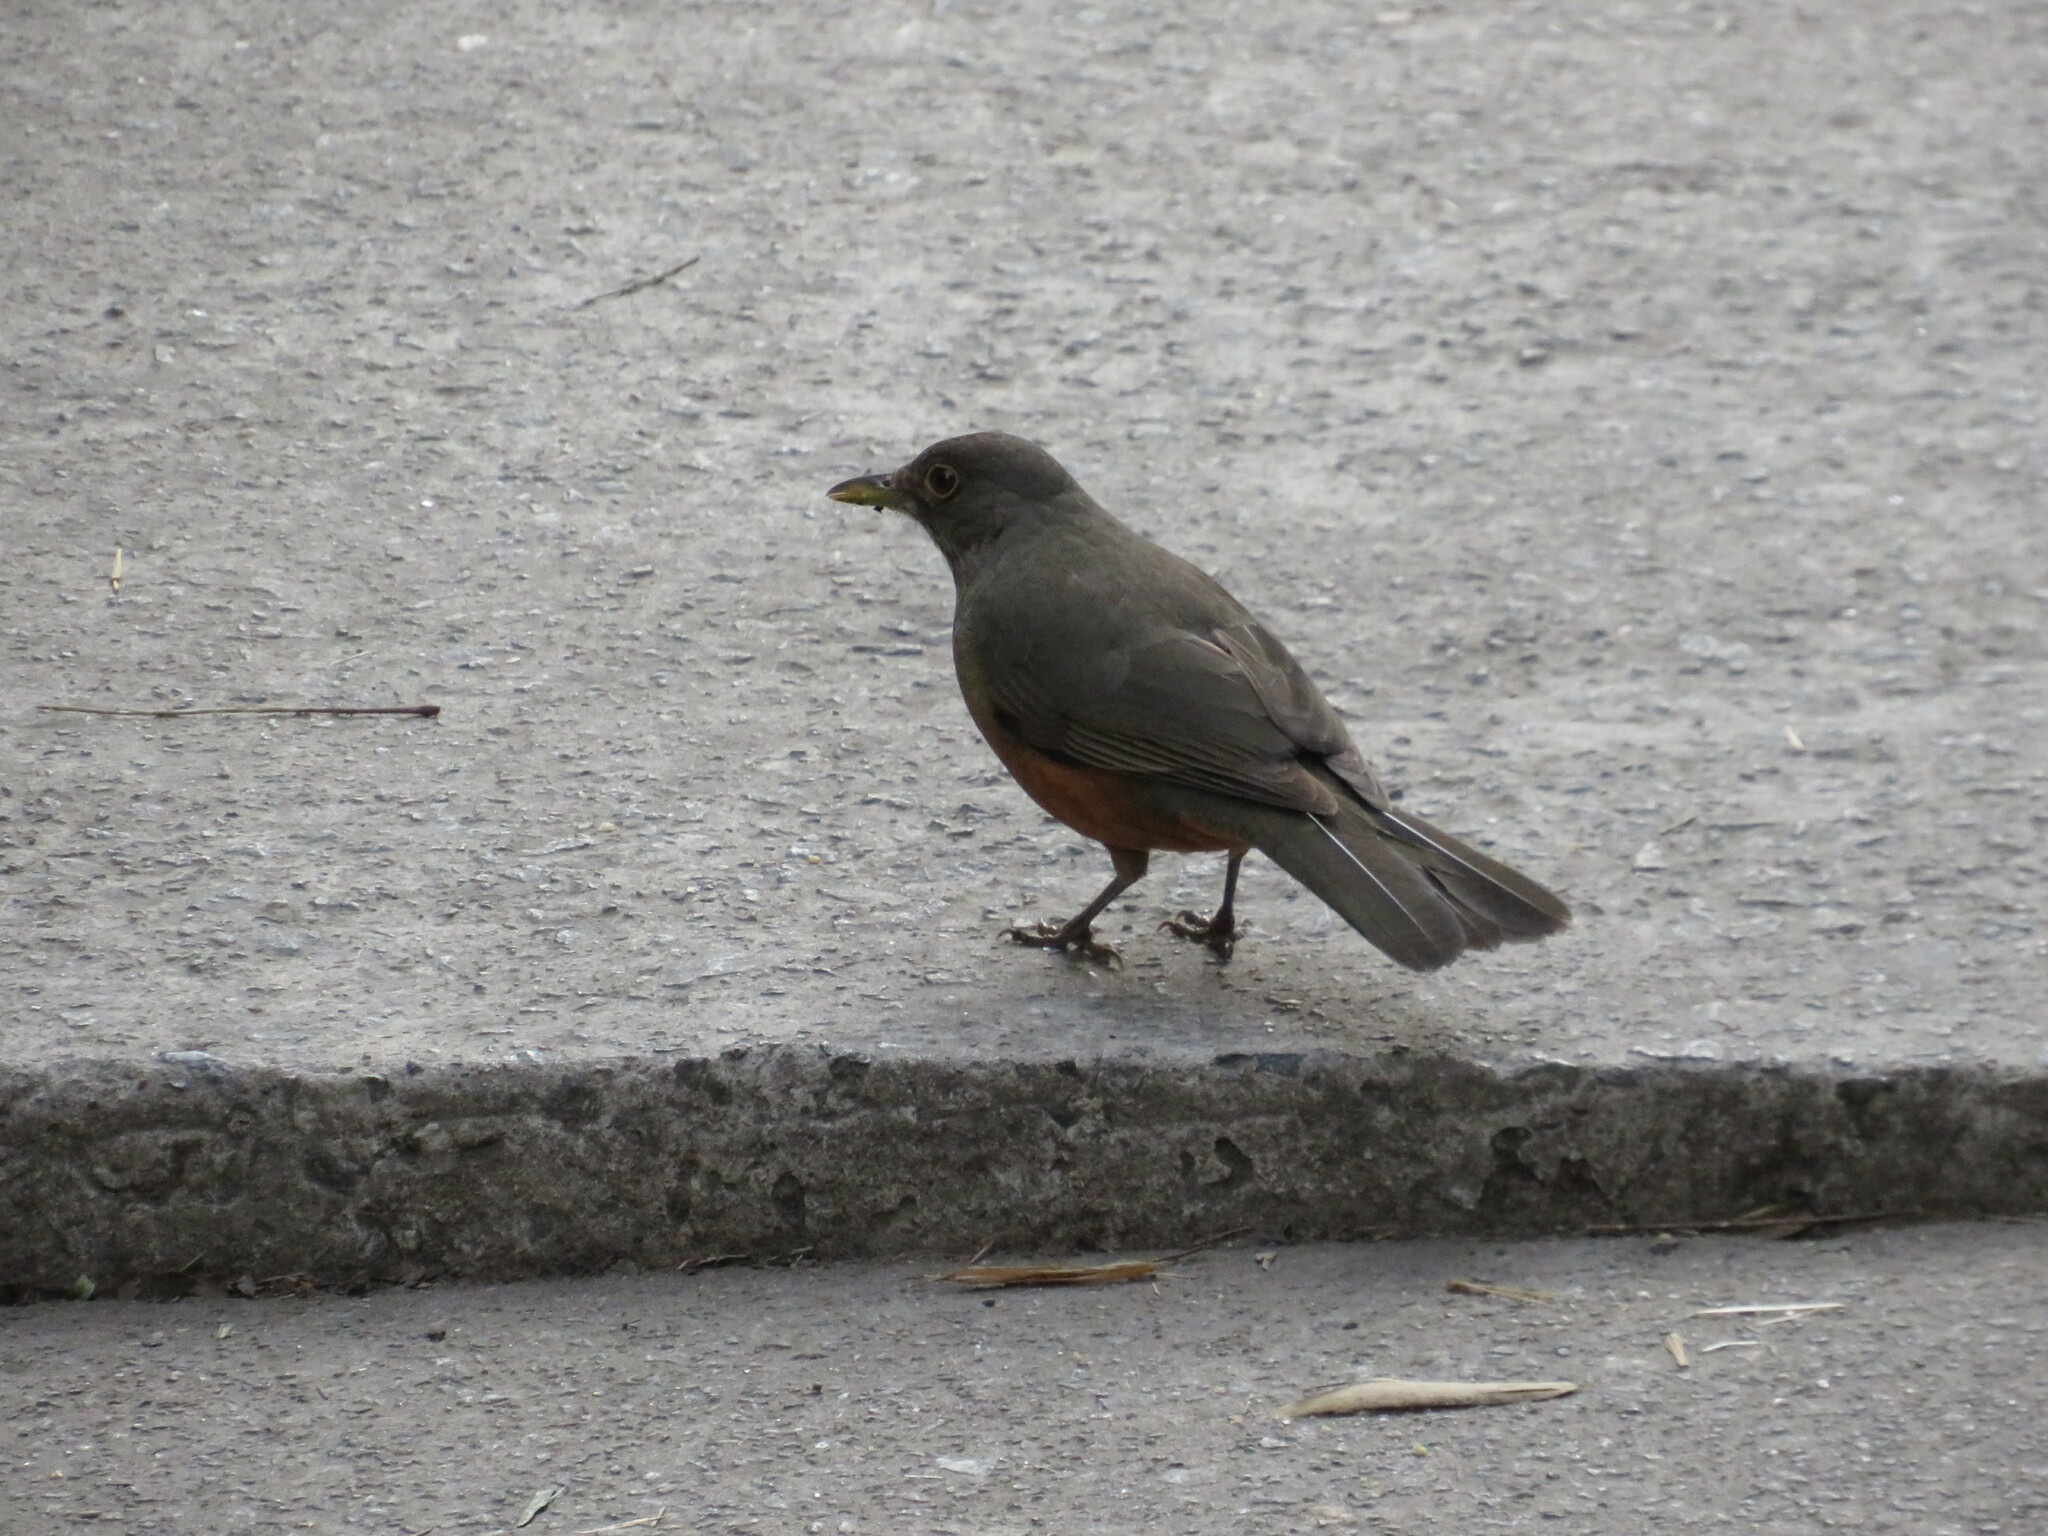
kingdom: Animalia
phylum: Chordata
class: Aves
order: Passeriformes
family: Turdidae
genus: Turdus
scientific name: Turdus rufiventris
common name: Rufous-bellied thrush
